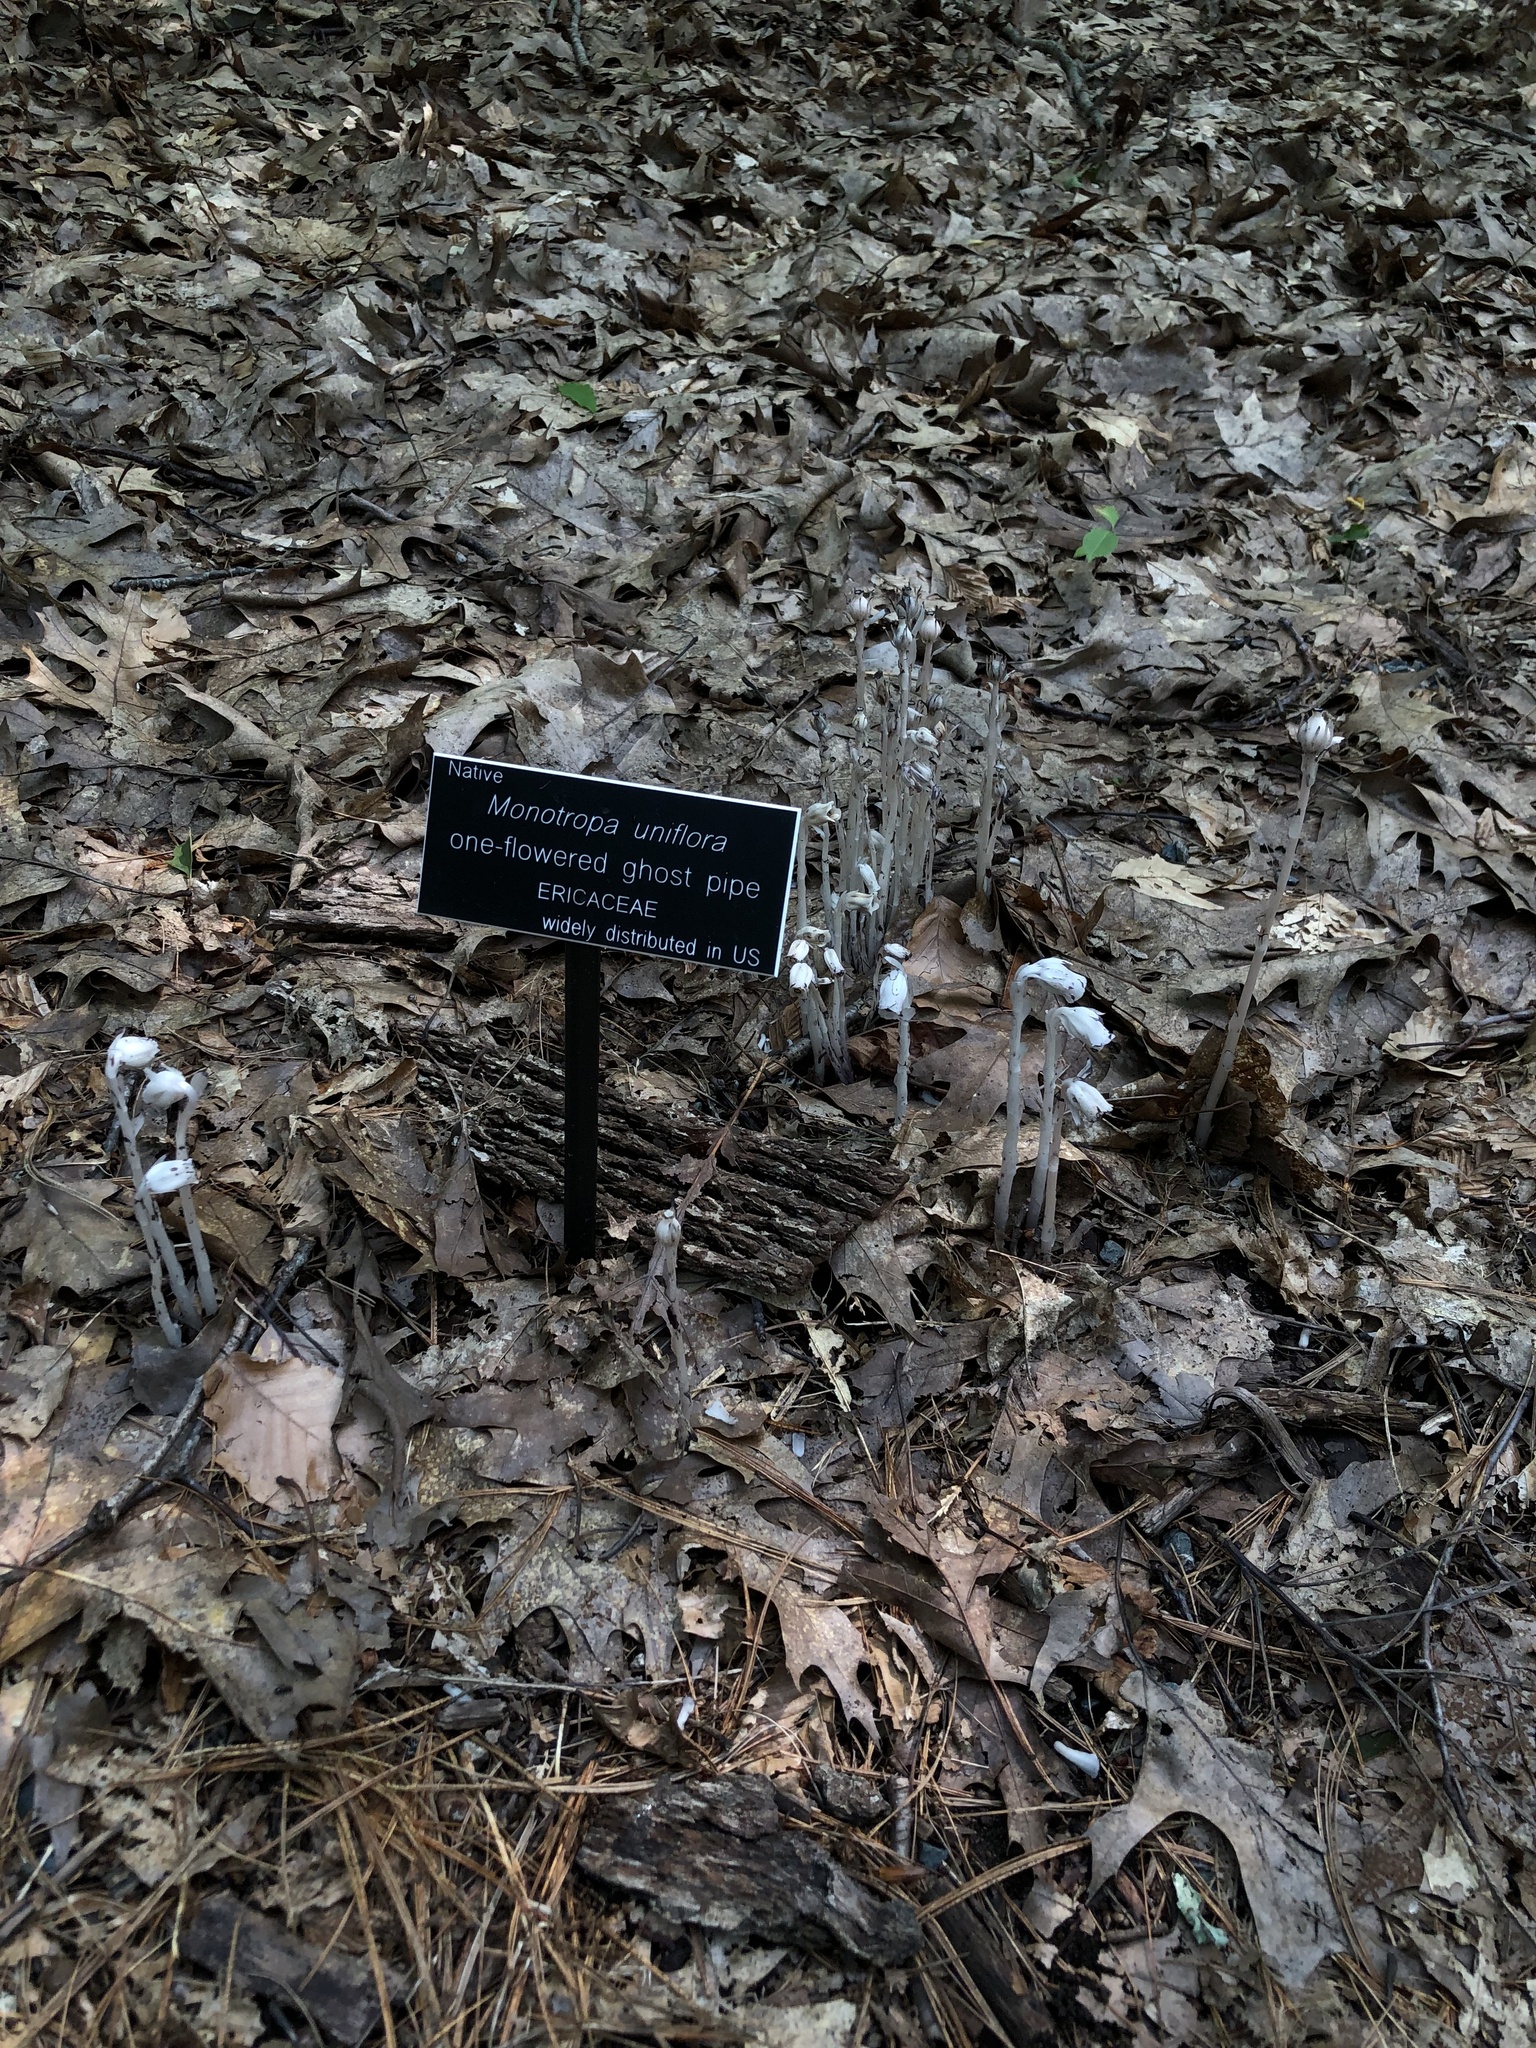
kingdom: Plantae
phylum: Tracheophyta
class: Magnoliopsida
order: Ericales
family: Ericaceae
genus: Monotropa
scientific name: Monotropa uniflora
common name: Convulsion root
